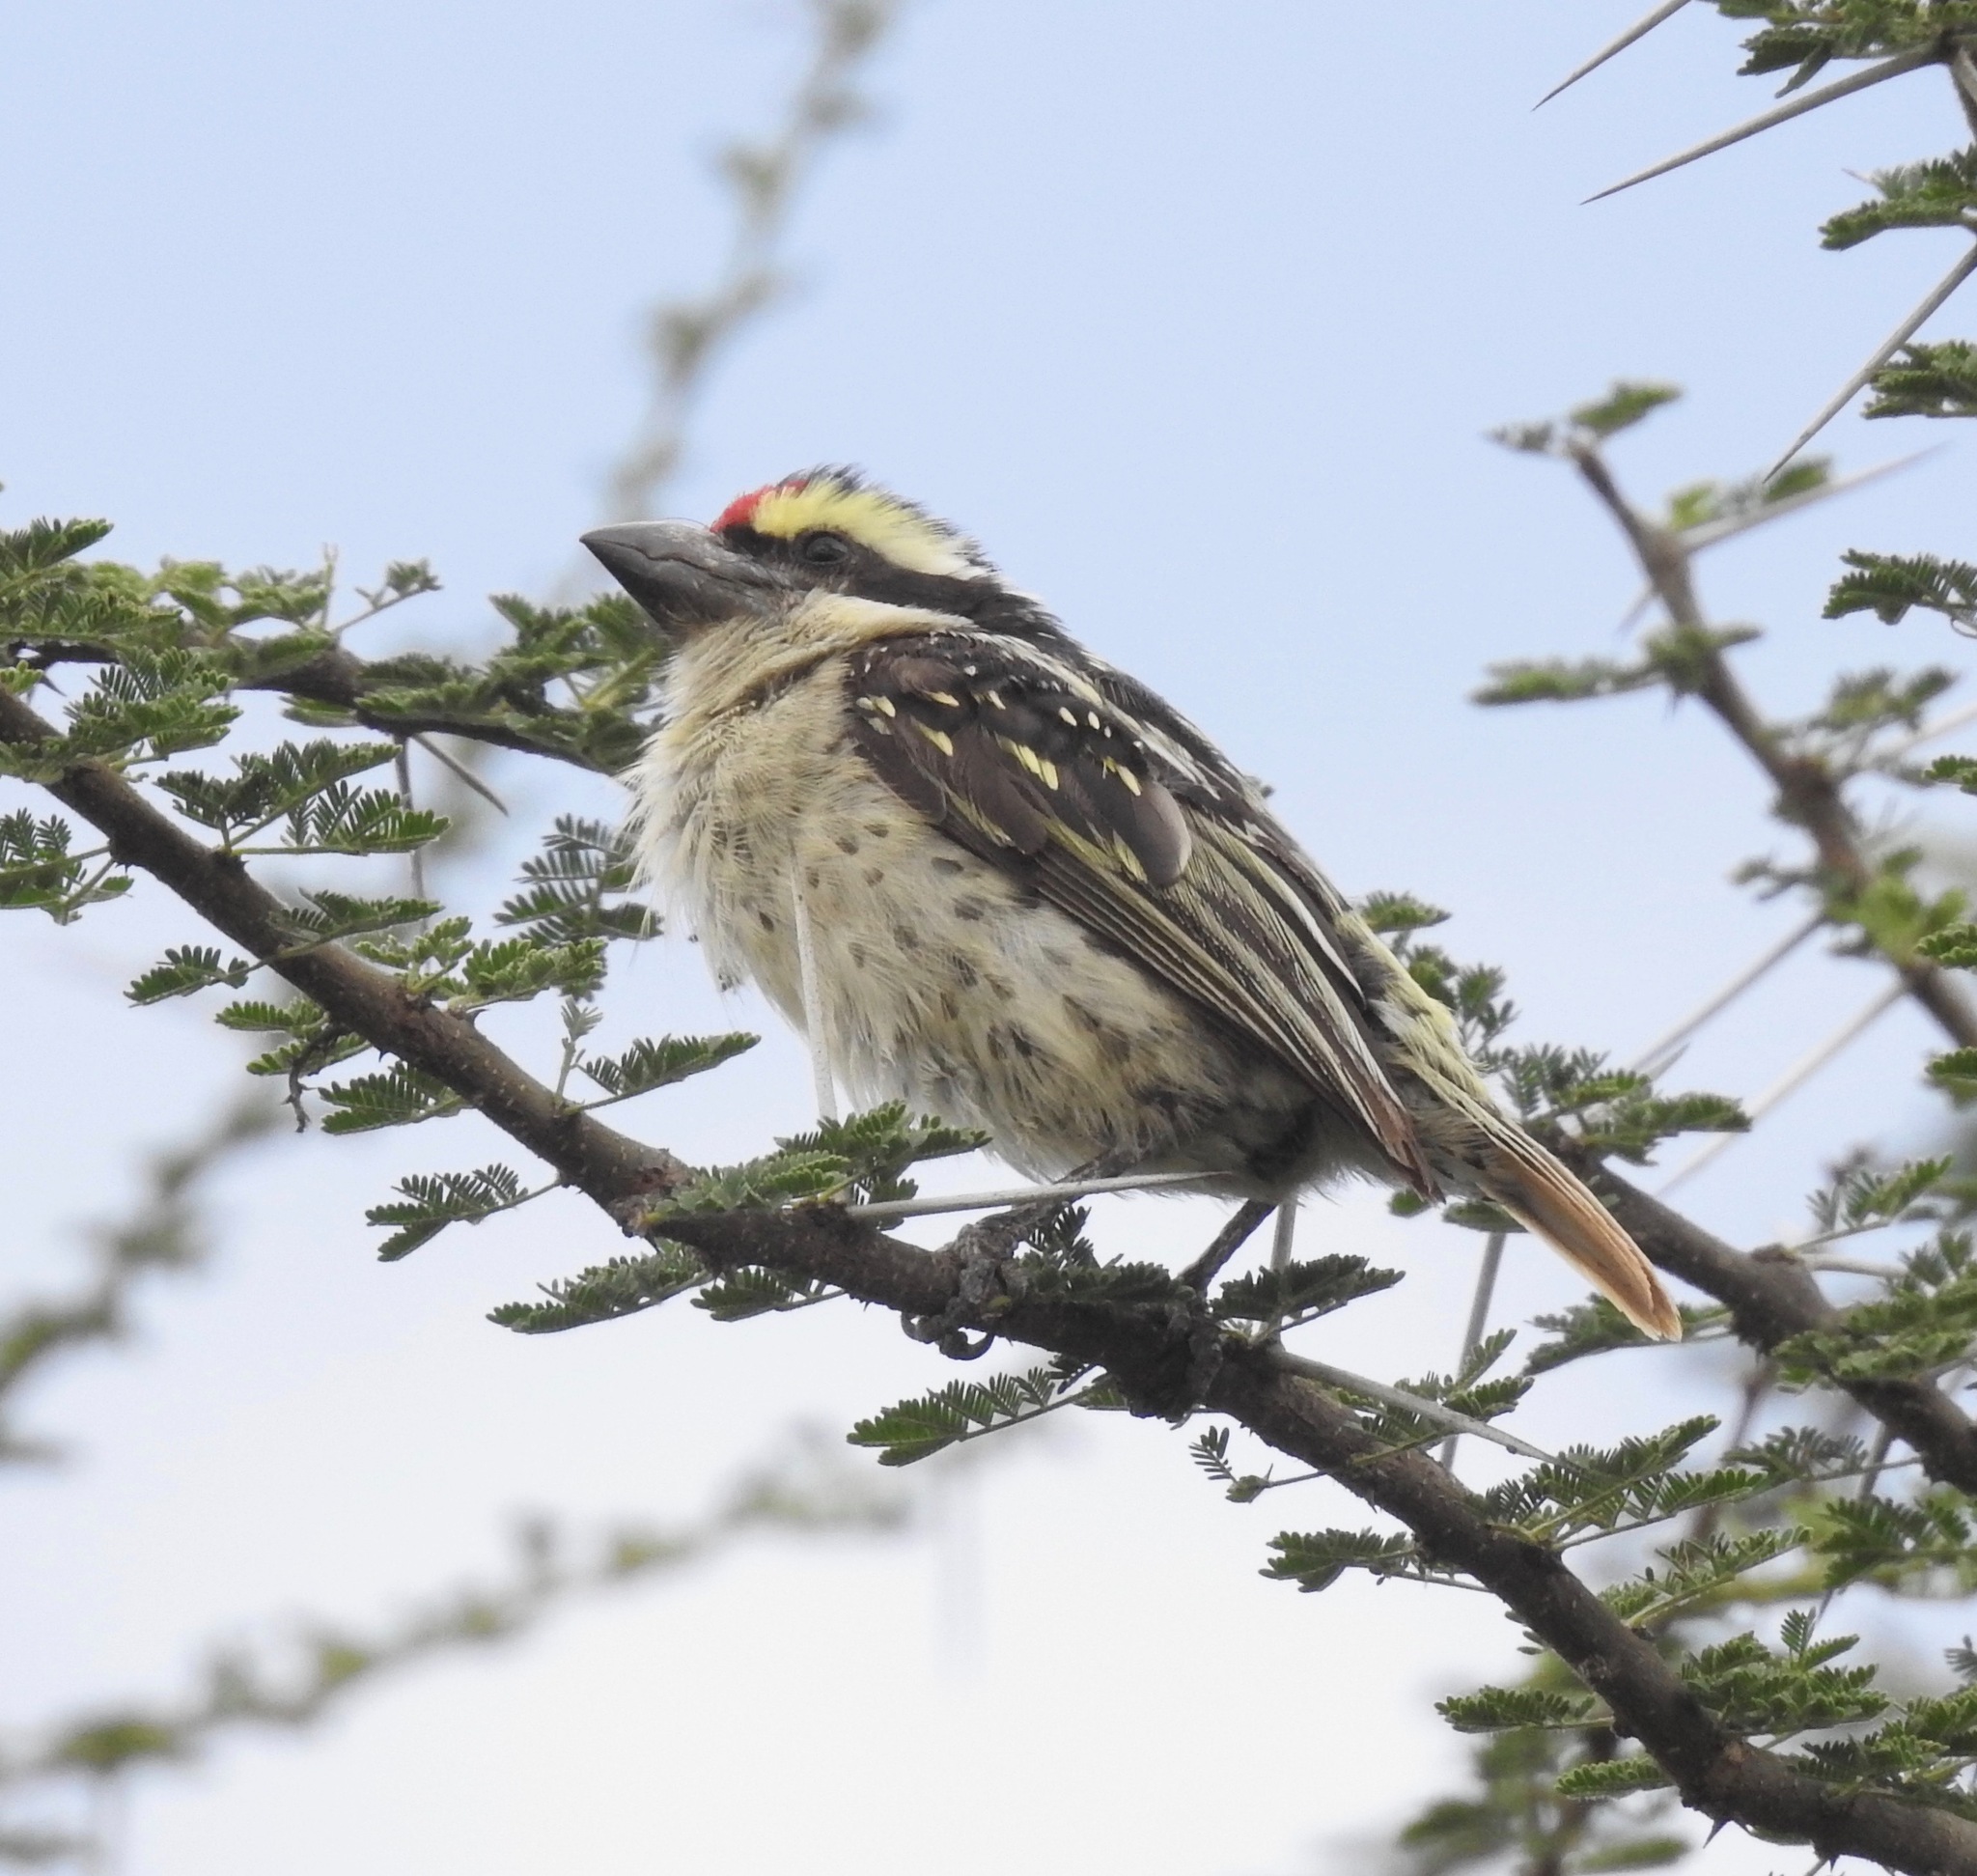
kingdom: Animalia
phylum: Chordata
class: Aves
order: Piciformes
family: Lybiidae
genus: Tricholaema
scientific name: Tricholaema diademata
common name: Red-fronted barbet
